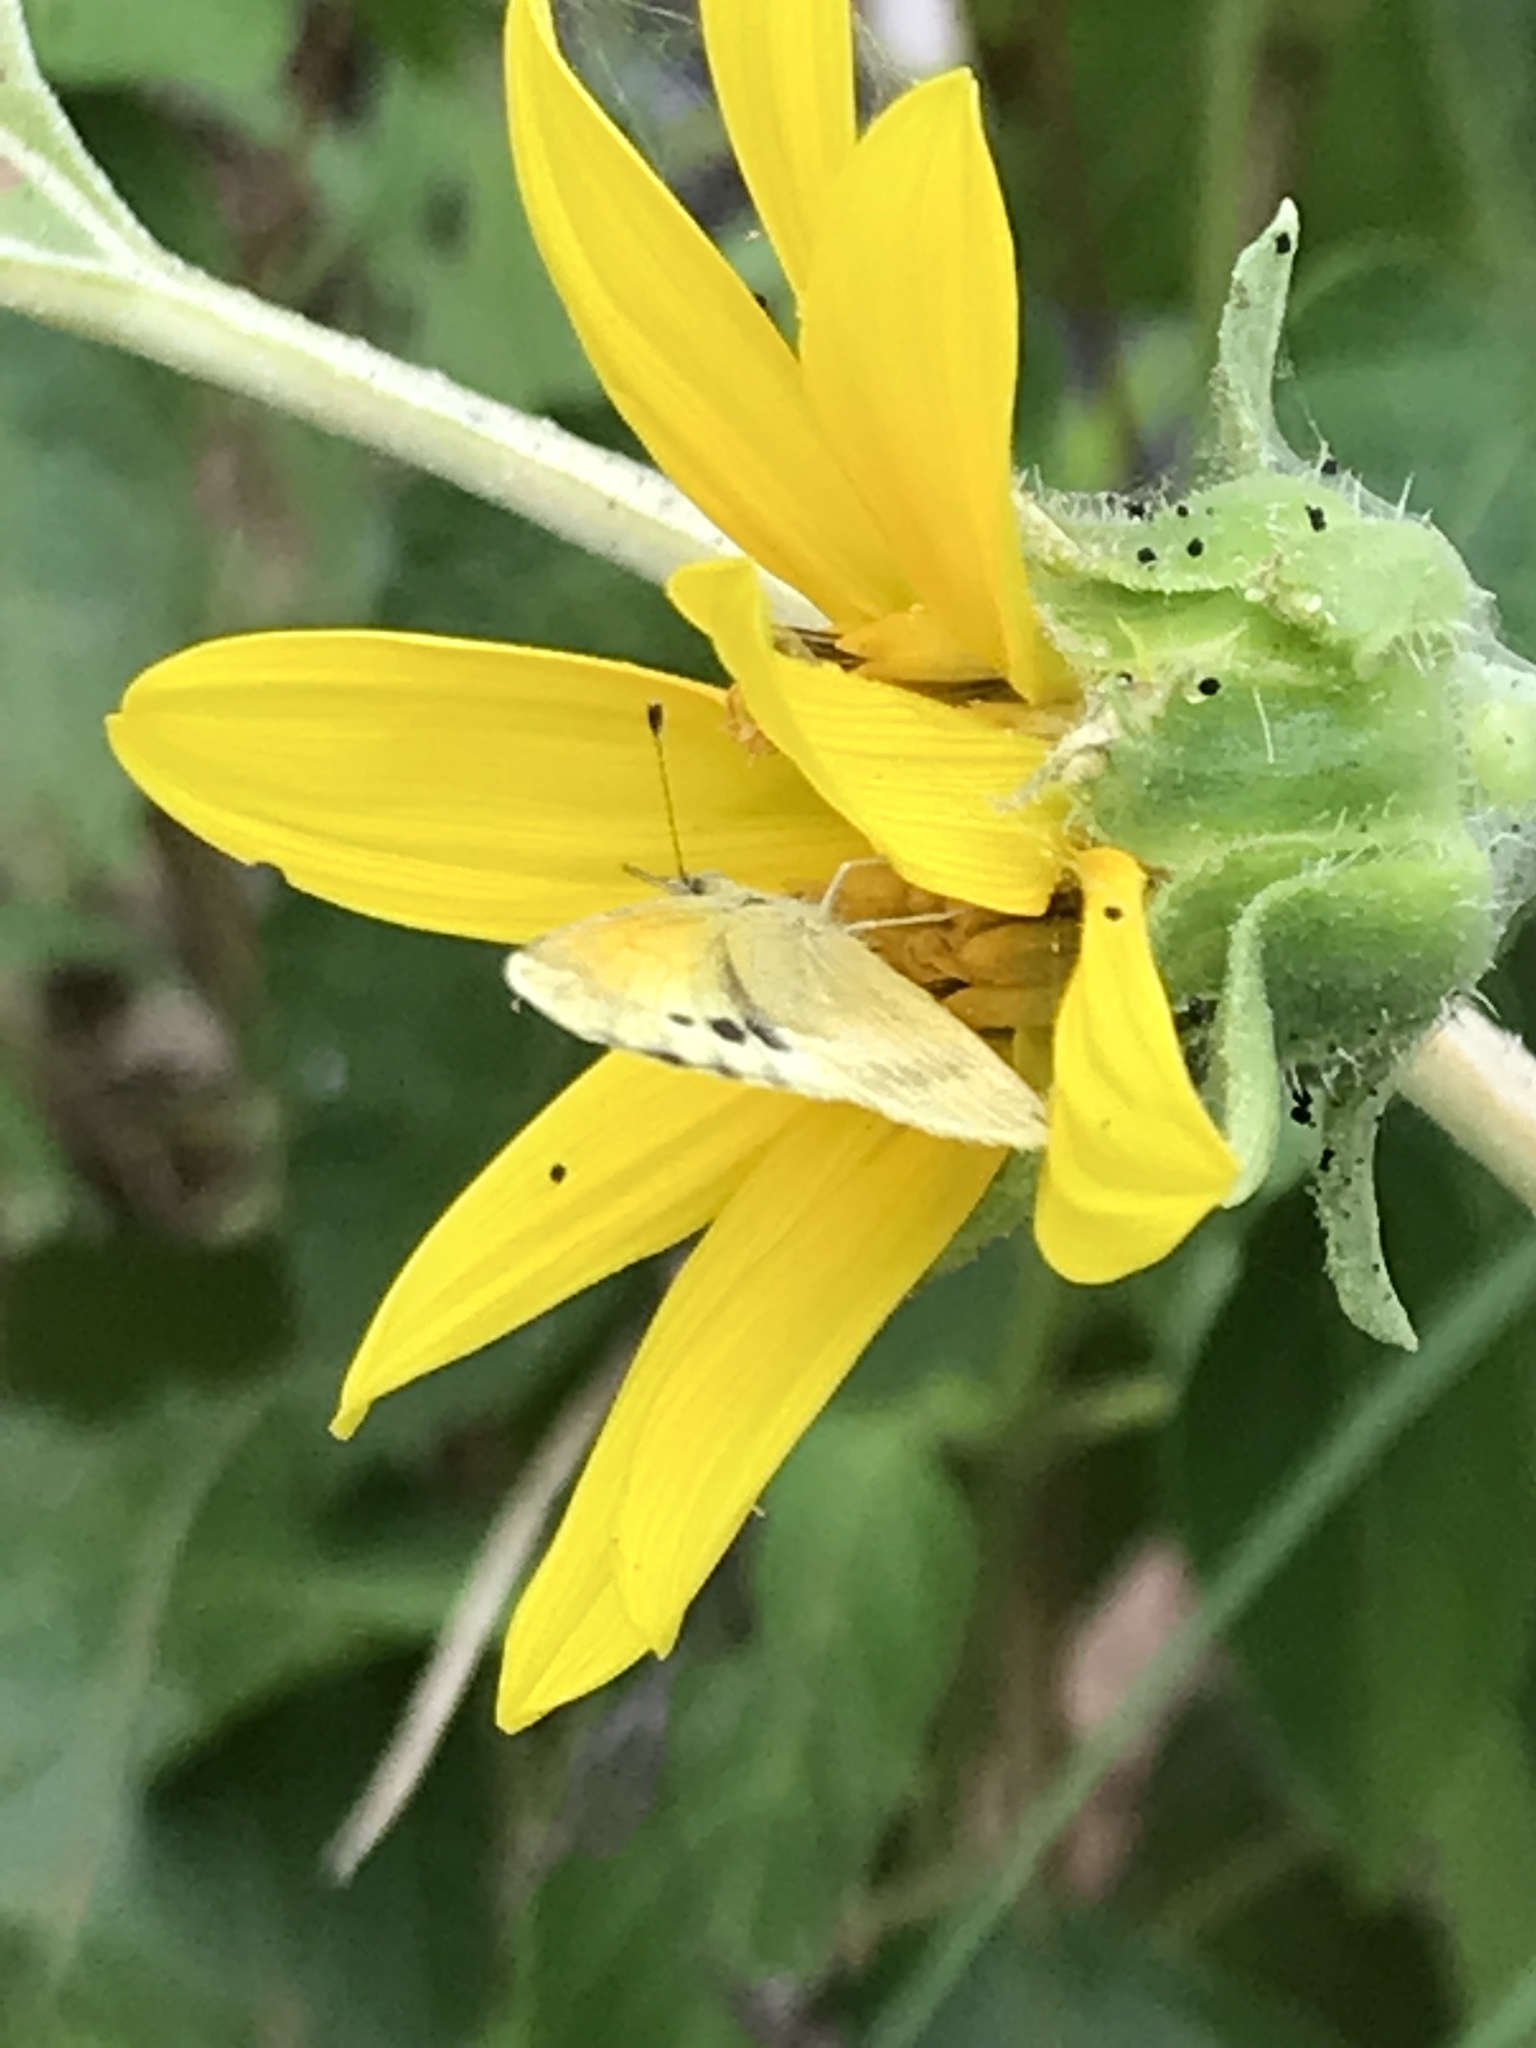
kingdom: Animalia
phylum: Arthropoda
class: Insecta
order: Lepidoptera
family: Pieridae
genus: Nathalis
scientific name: Nathalis iole
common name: Dainty sulphur
